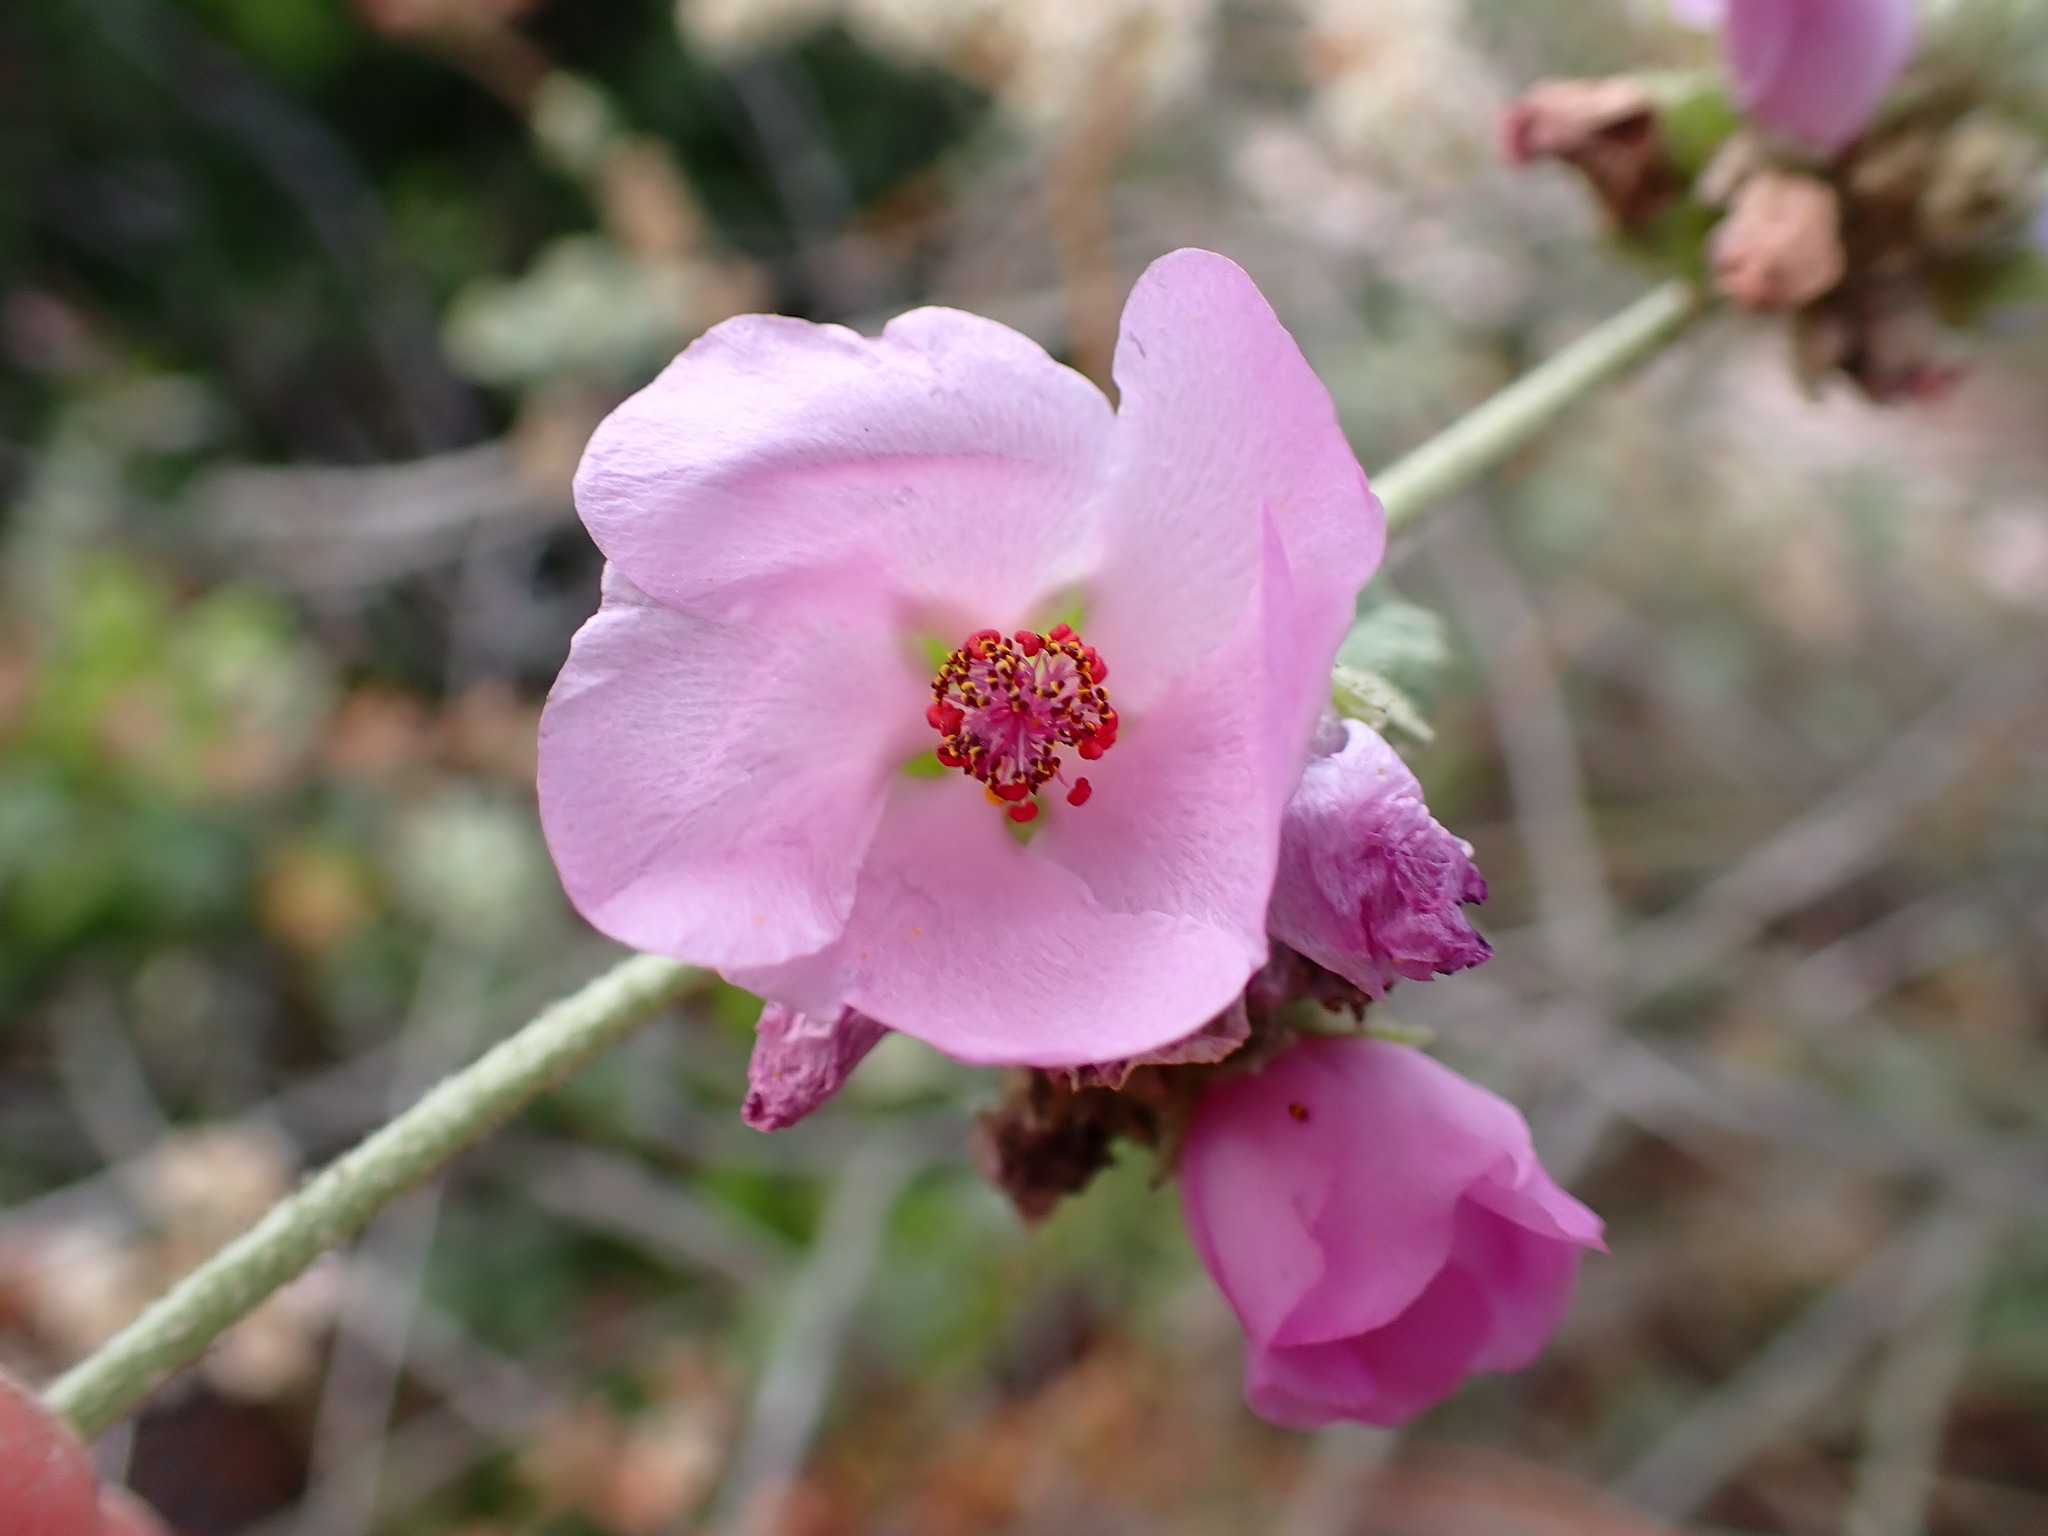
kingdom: Plantae
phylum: Tracheophyta
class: Magnoliopsida
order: Malvales
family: Malvaceae
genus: Malacothamnus
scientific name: Malacothamnus fasciculatus
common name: Sant cruz island bush-mallow
